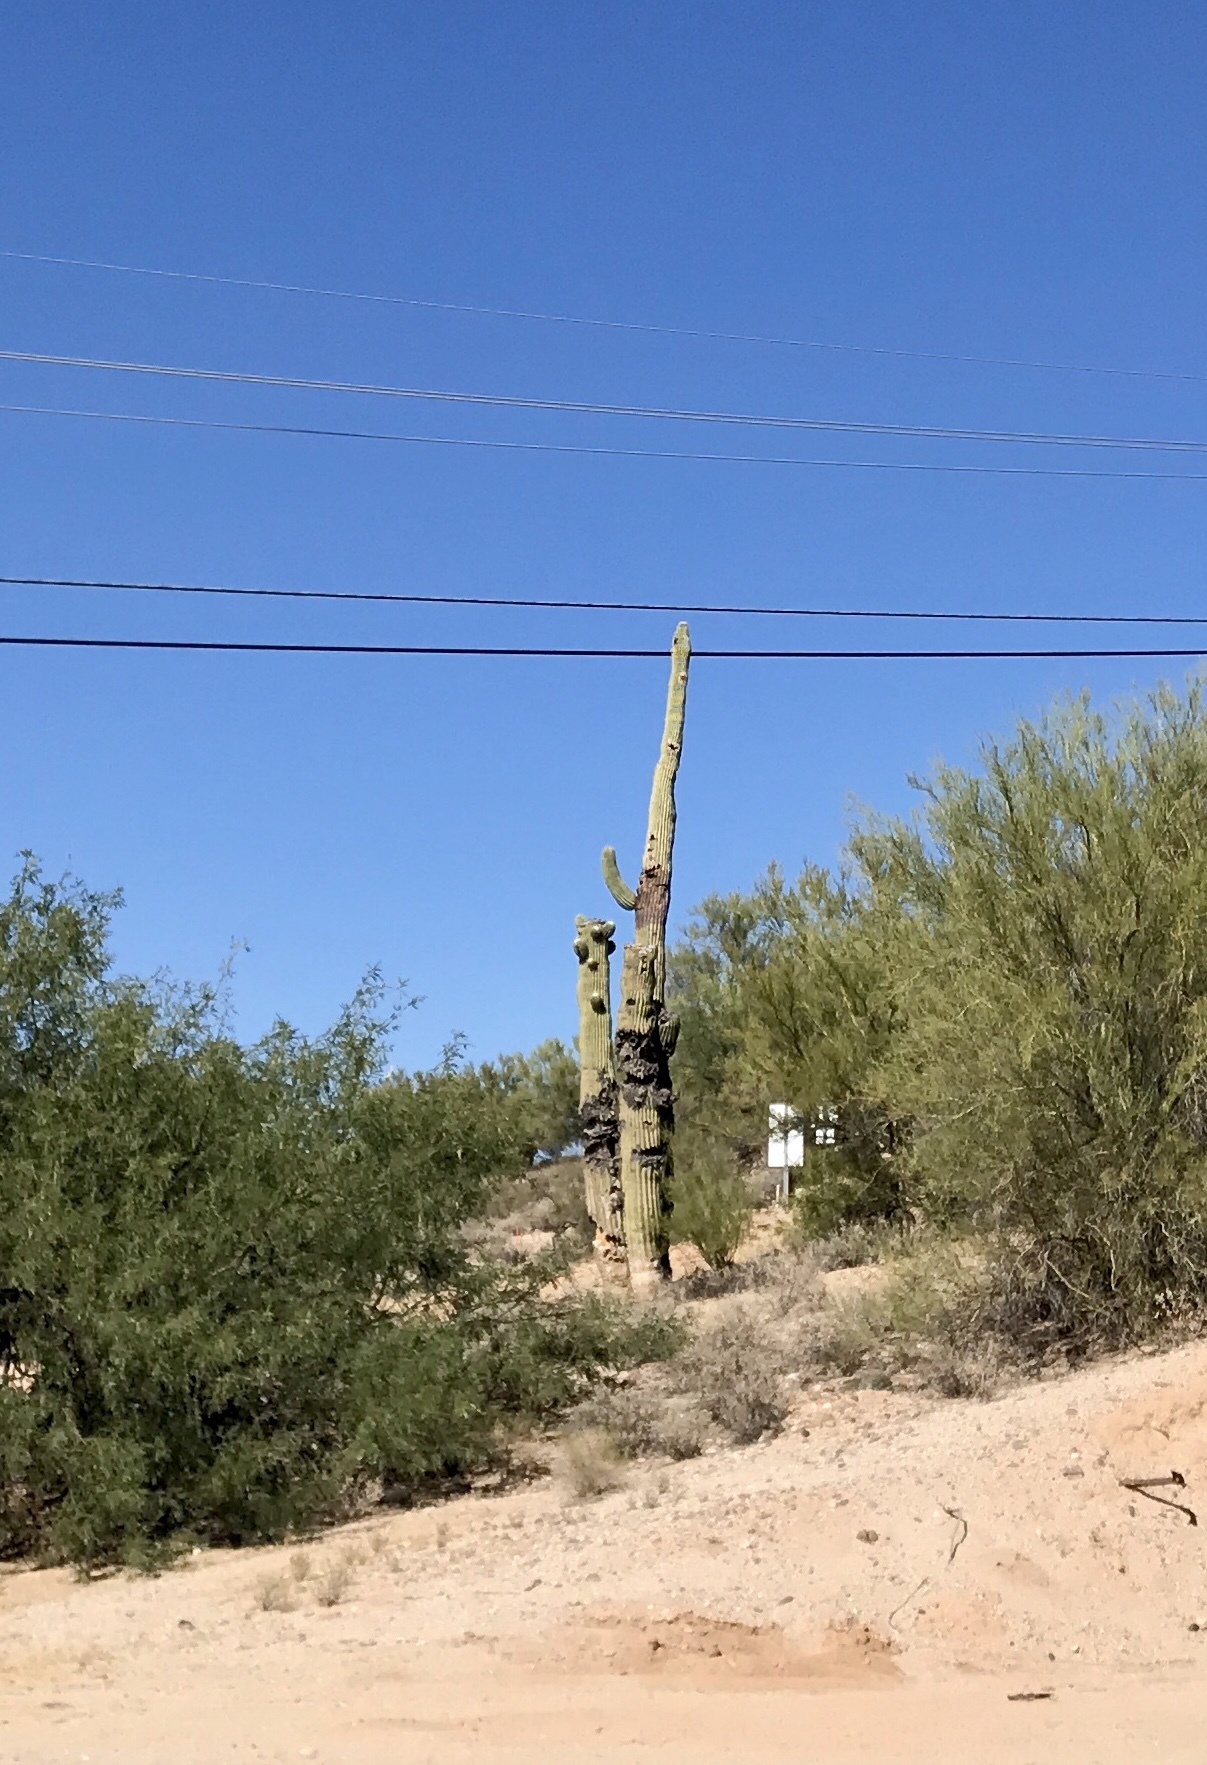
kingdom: Plantae
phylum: Tracheophyta
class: Magnoliopsida
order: Caryophyllales
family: Cactaceae
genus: Carnegiea
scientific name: Carnegiea gigantea
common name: Saguaro
